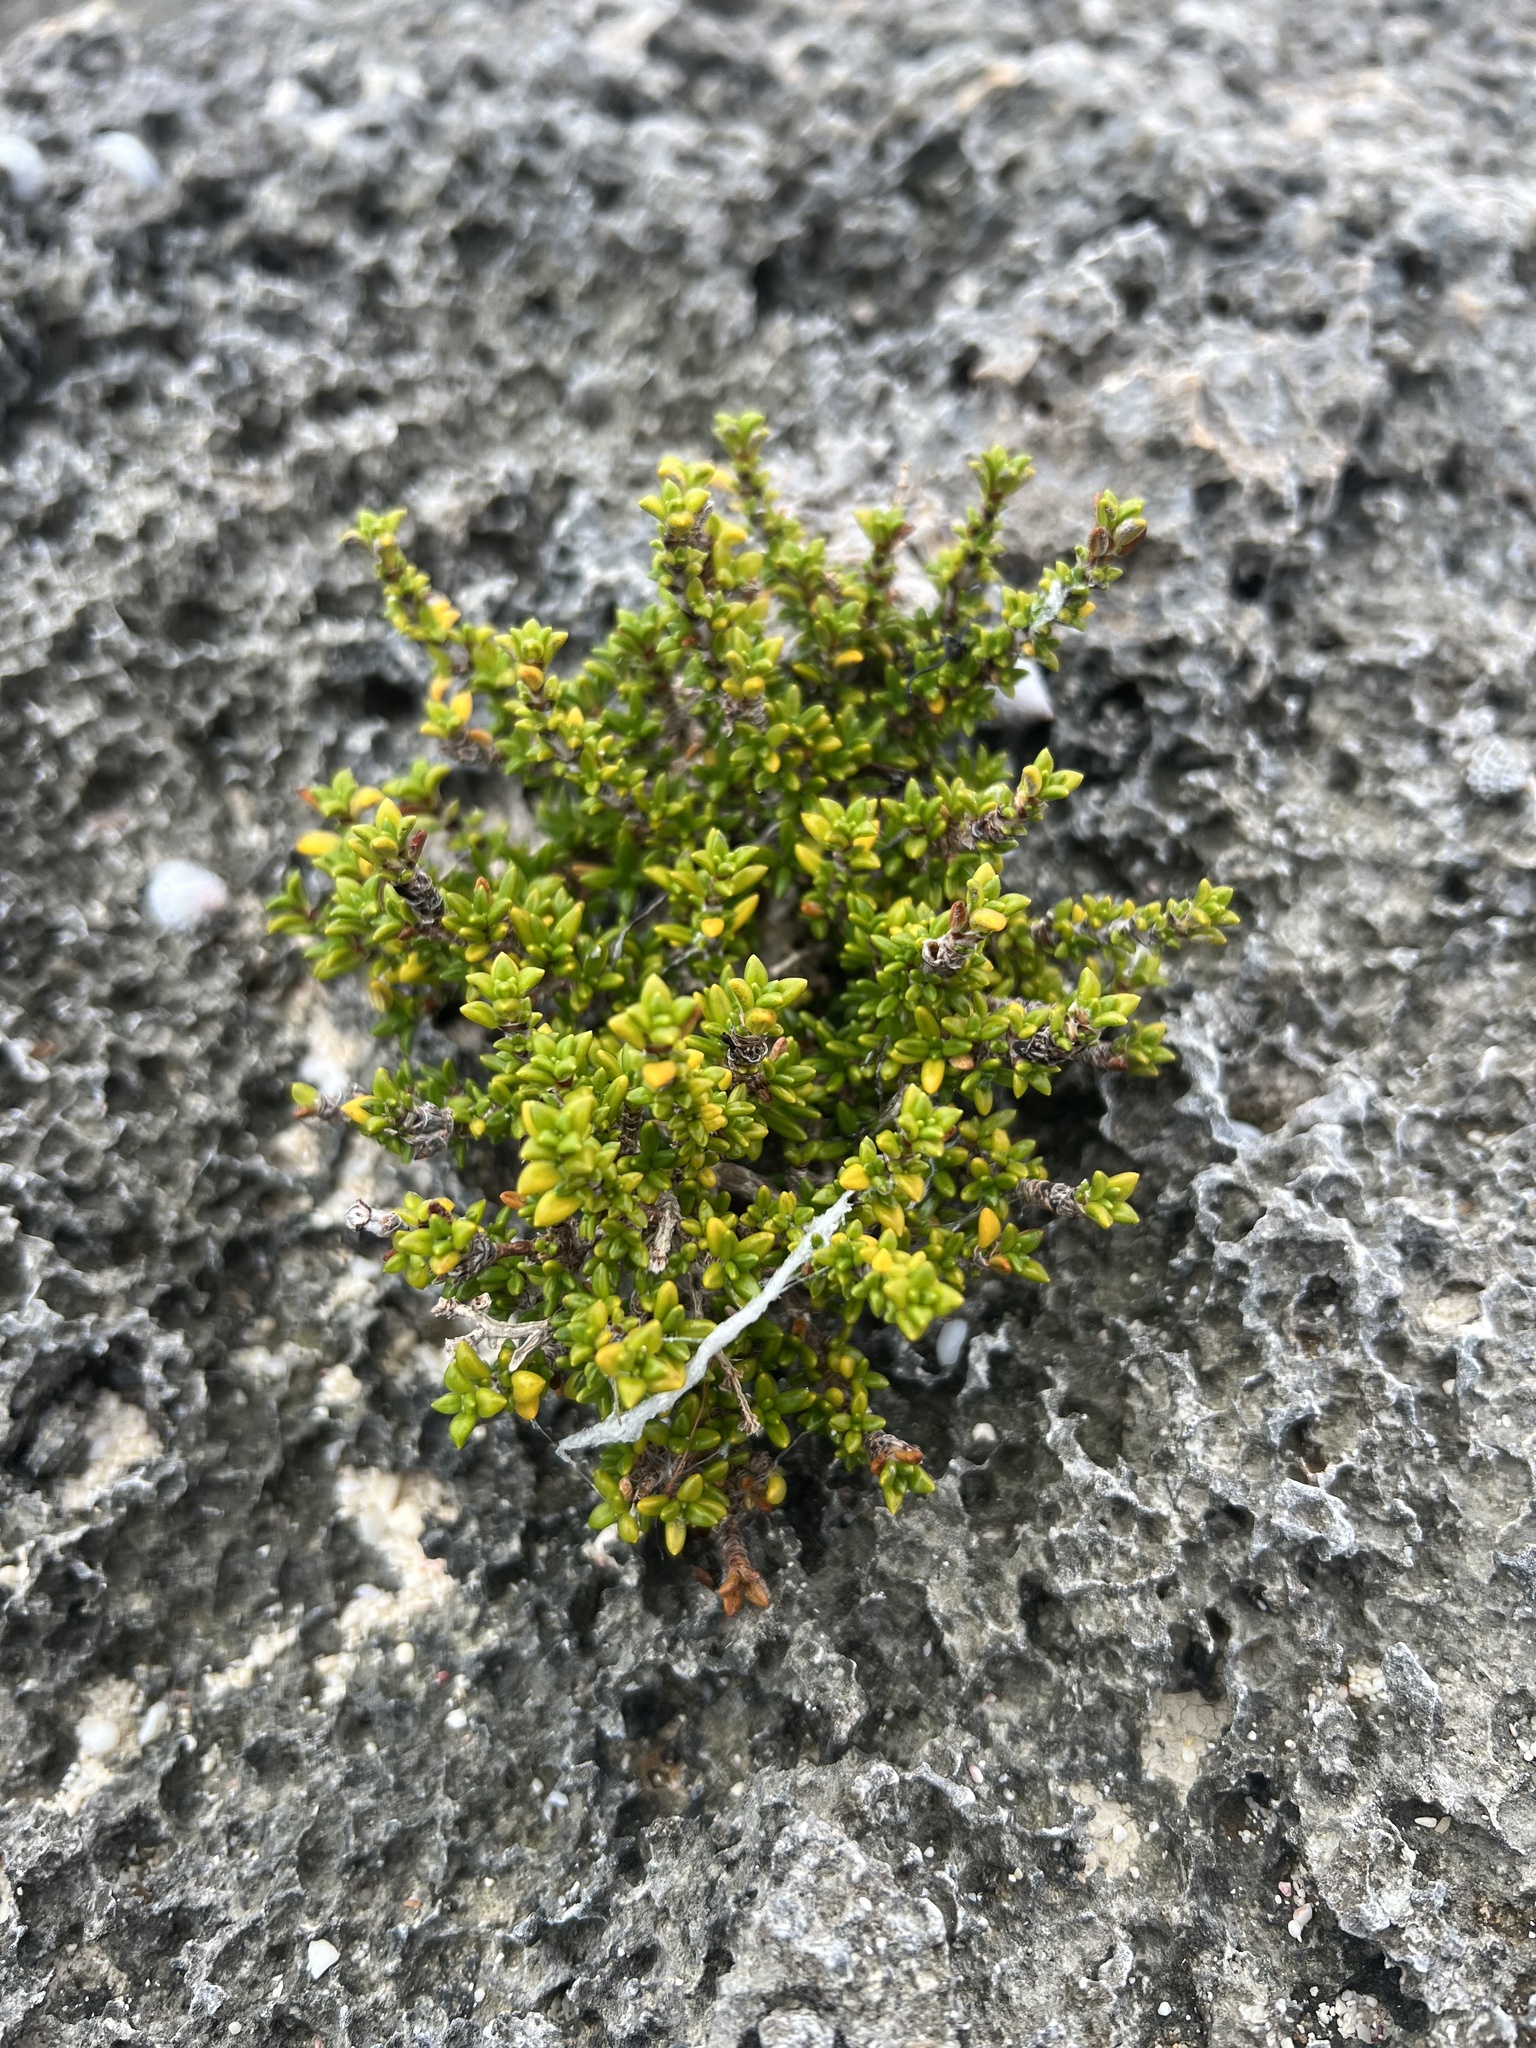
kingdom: Plantae
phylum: Tracheophyta
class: Magnoliopsida
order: Gentianales
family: Rubiaceae
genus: Rachicallis
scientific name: Rachicallis americana
